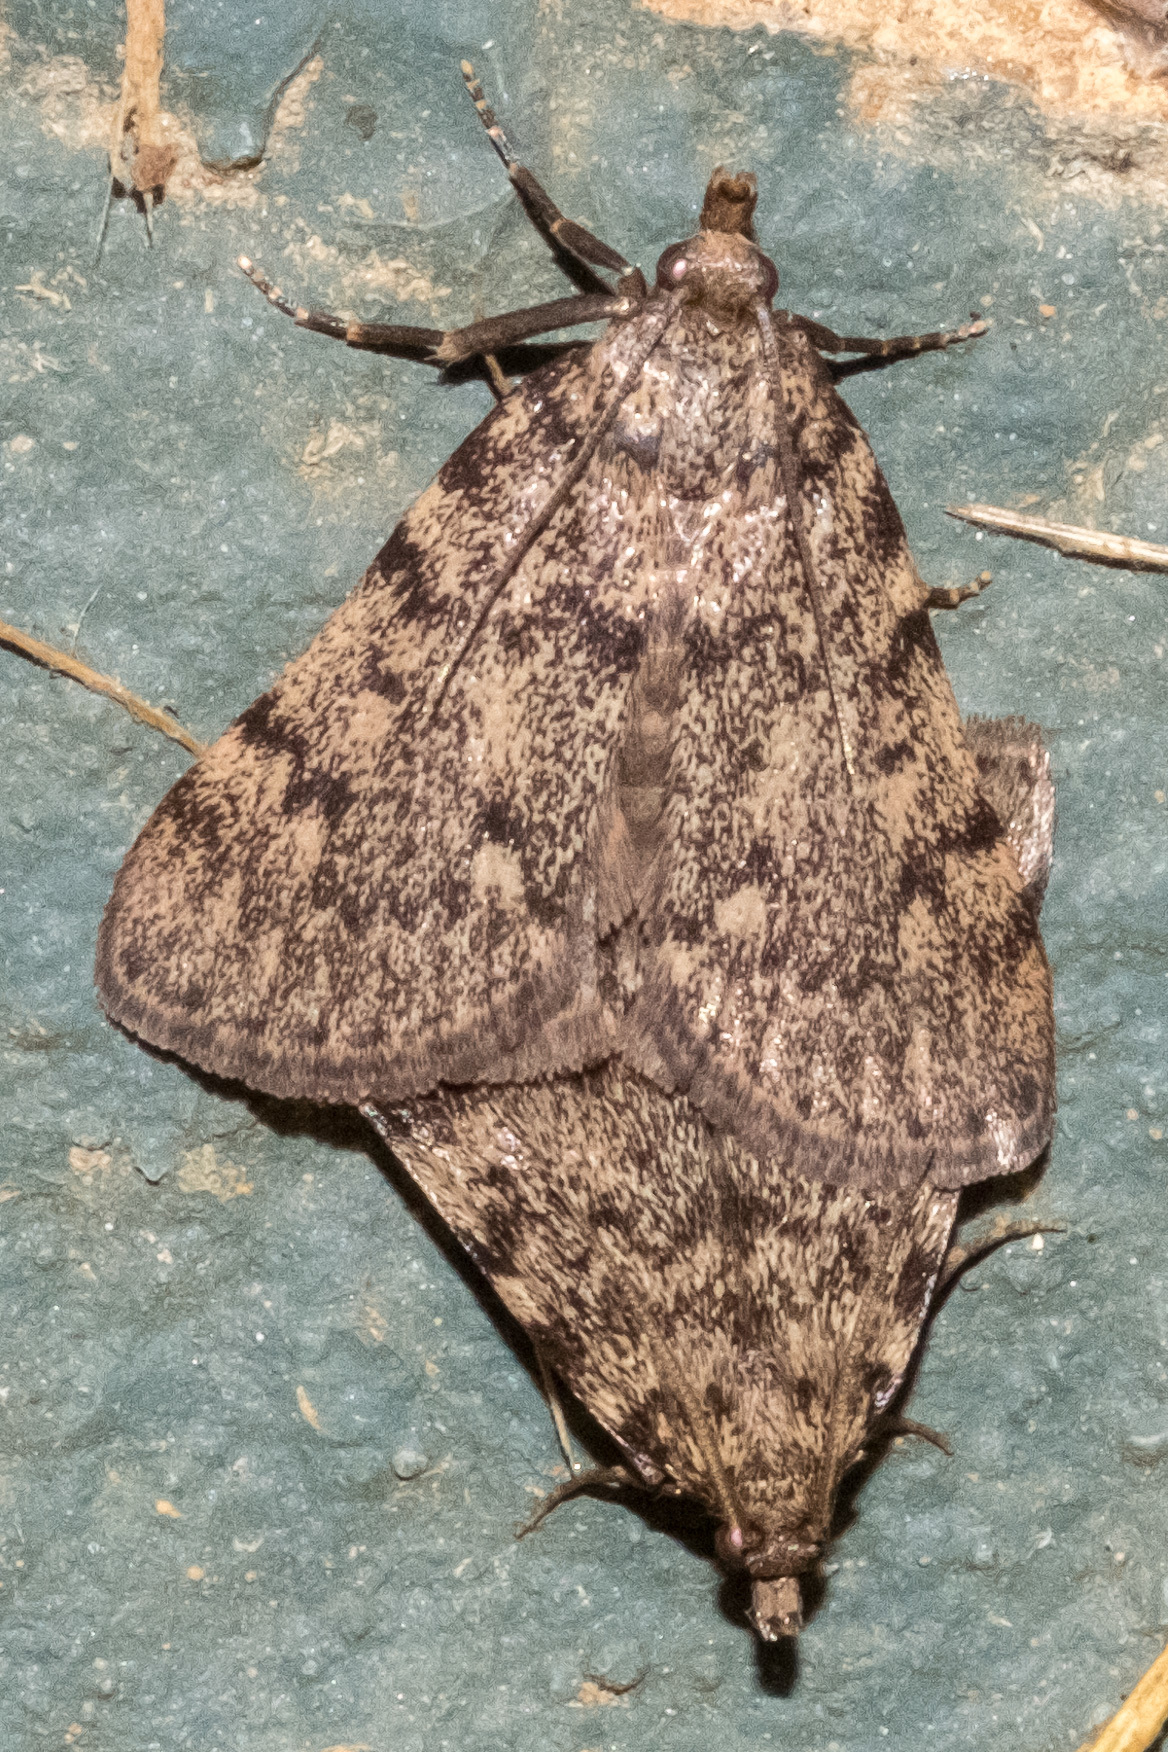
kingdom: Animalia
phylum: Arthropoda
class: Insecta
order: Lepidoptera
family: Pyralidae
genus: Aglossa
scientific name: Aglossa pinguinalis
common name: Large tabby
